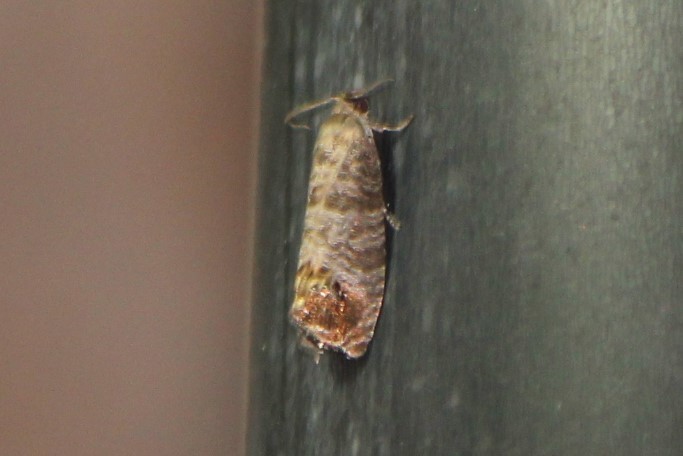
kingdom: Animalia
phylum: Arthropoda
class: Insecta
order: Lepidoptera
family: Tortricidae
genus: Cydia
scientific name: Cydia pomonella
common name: Codling moth
